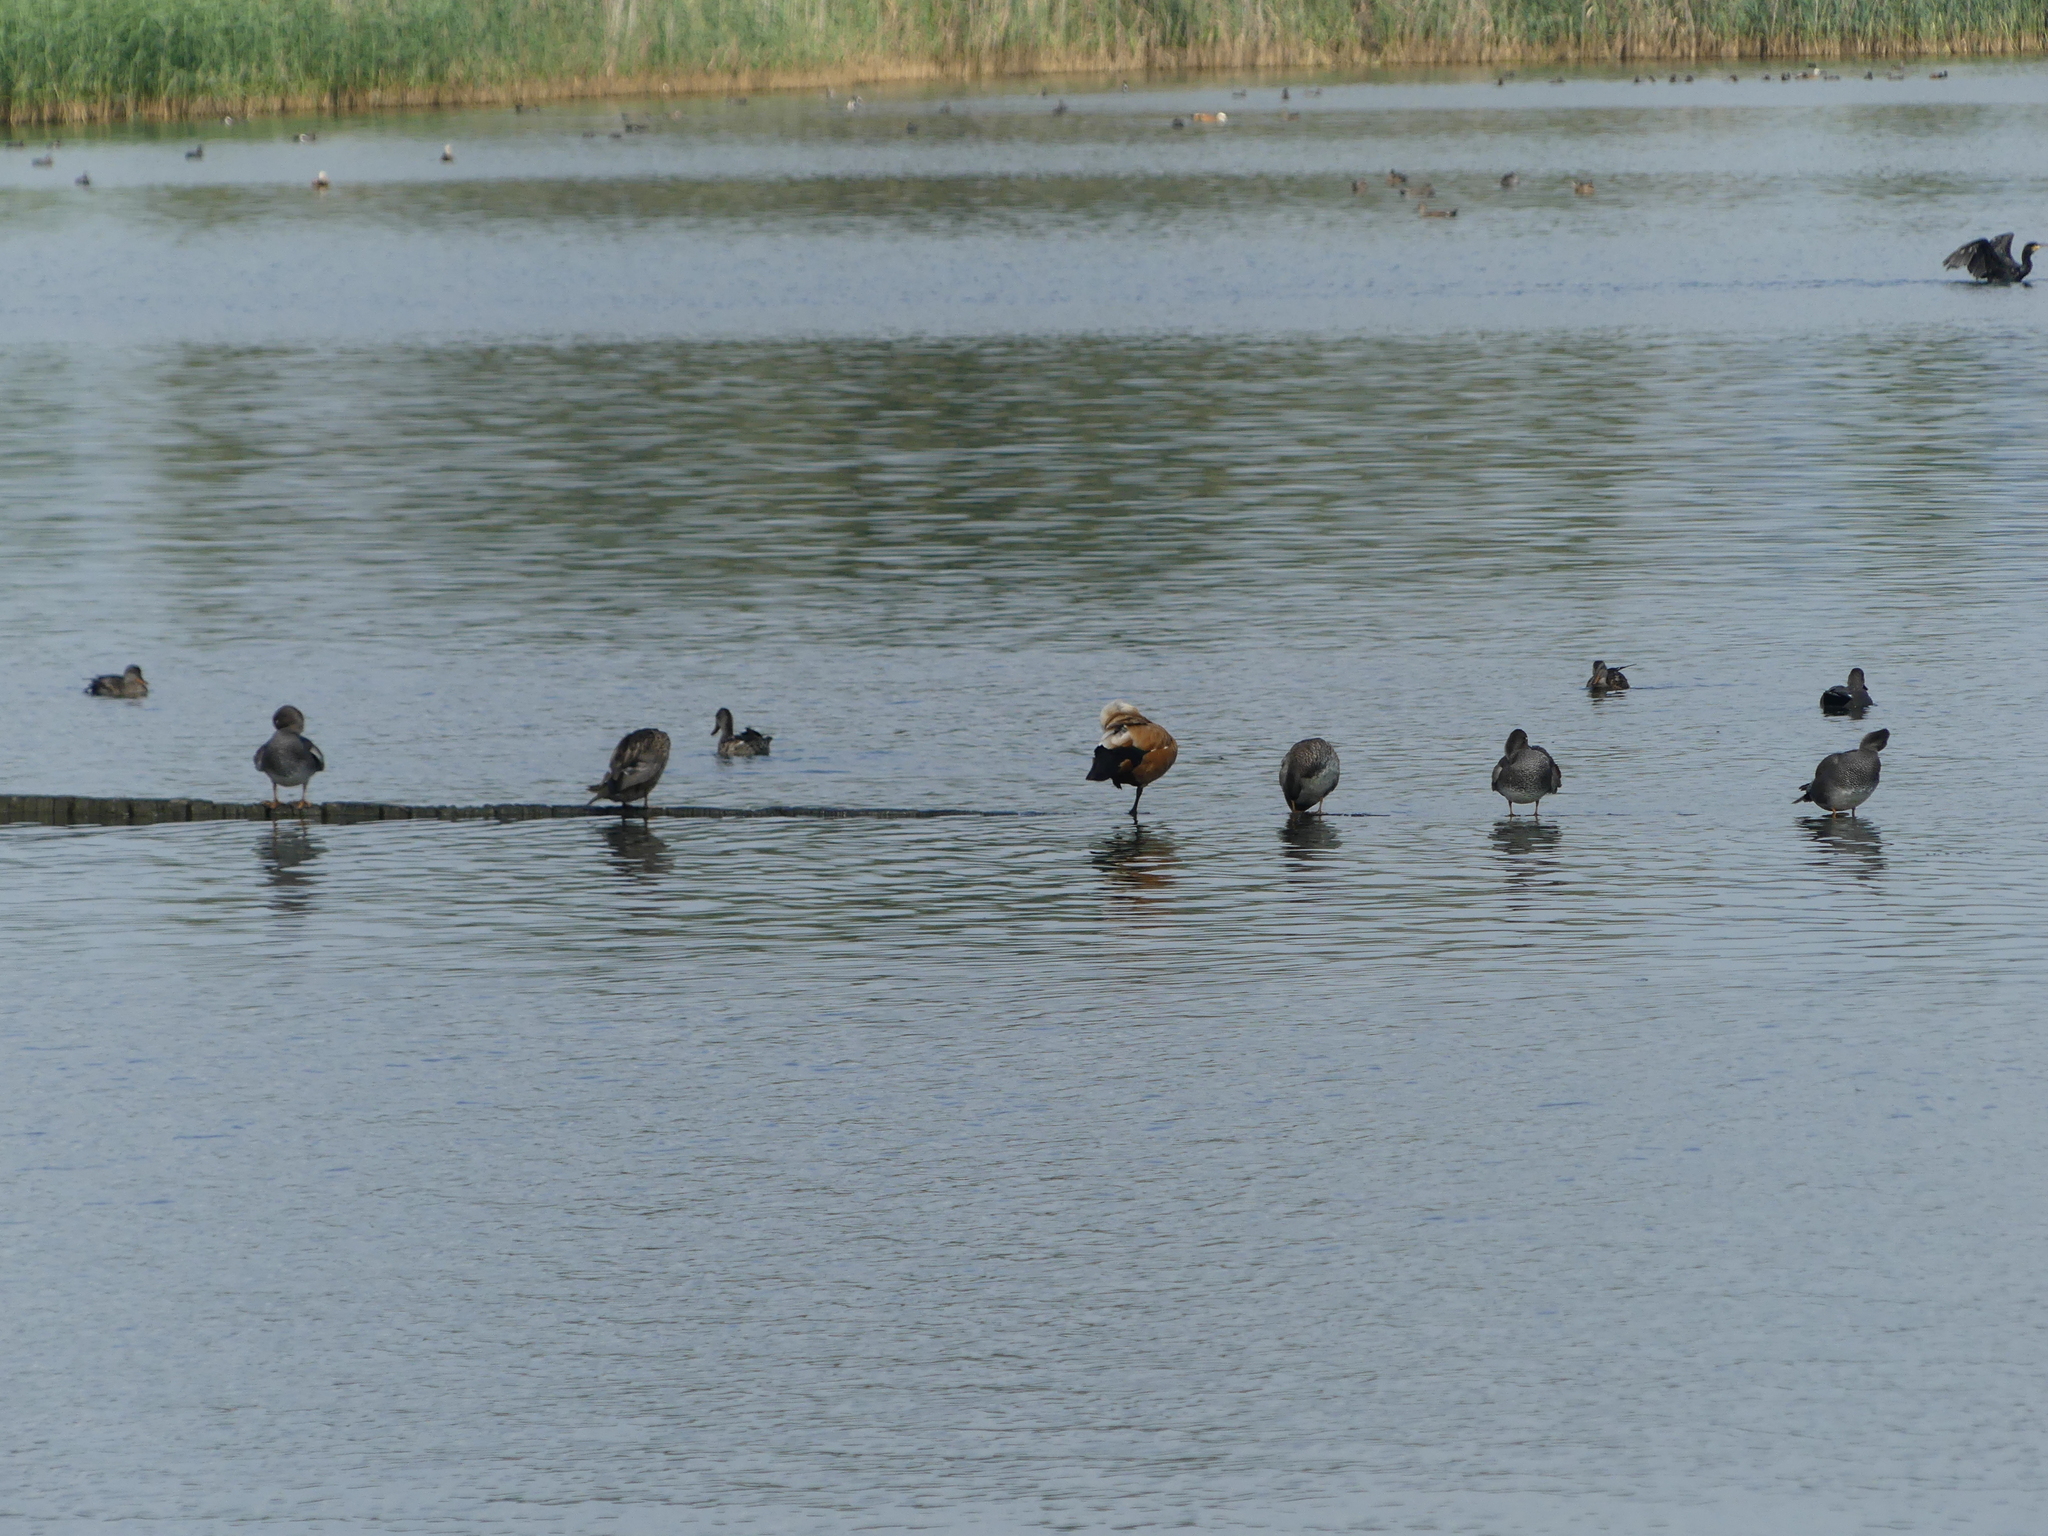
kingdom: Animalia
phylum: Chordata
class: Aves
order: Anseriformes
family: Anatidae
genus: Tadorna
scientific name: Tadorna ferruginea
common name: Ruddy shelduck
